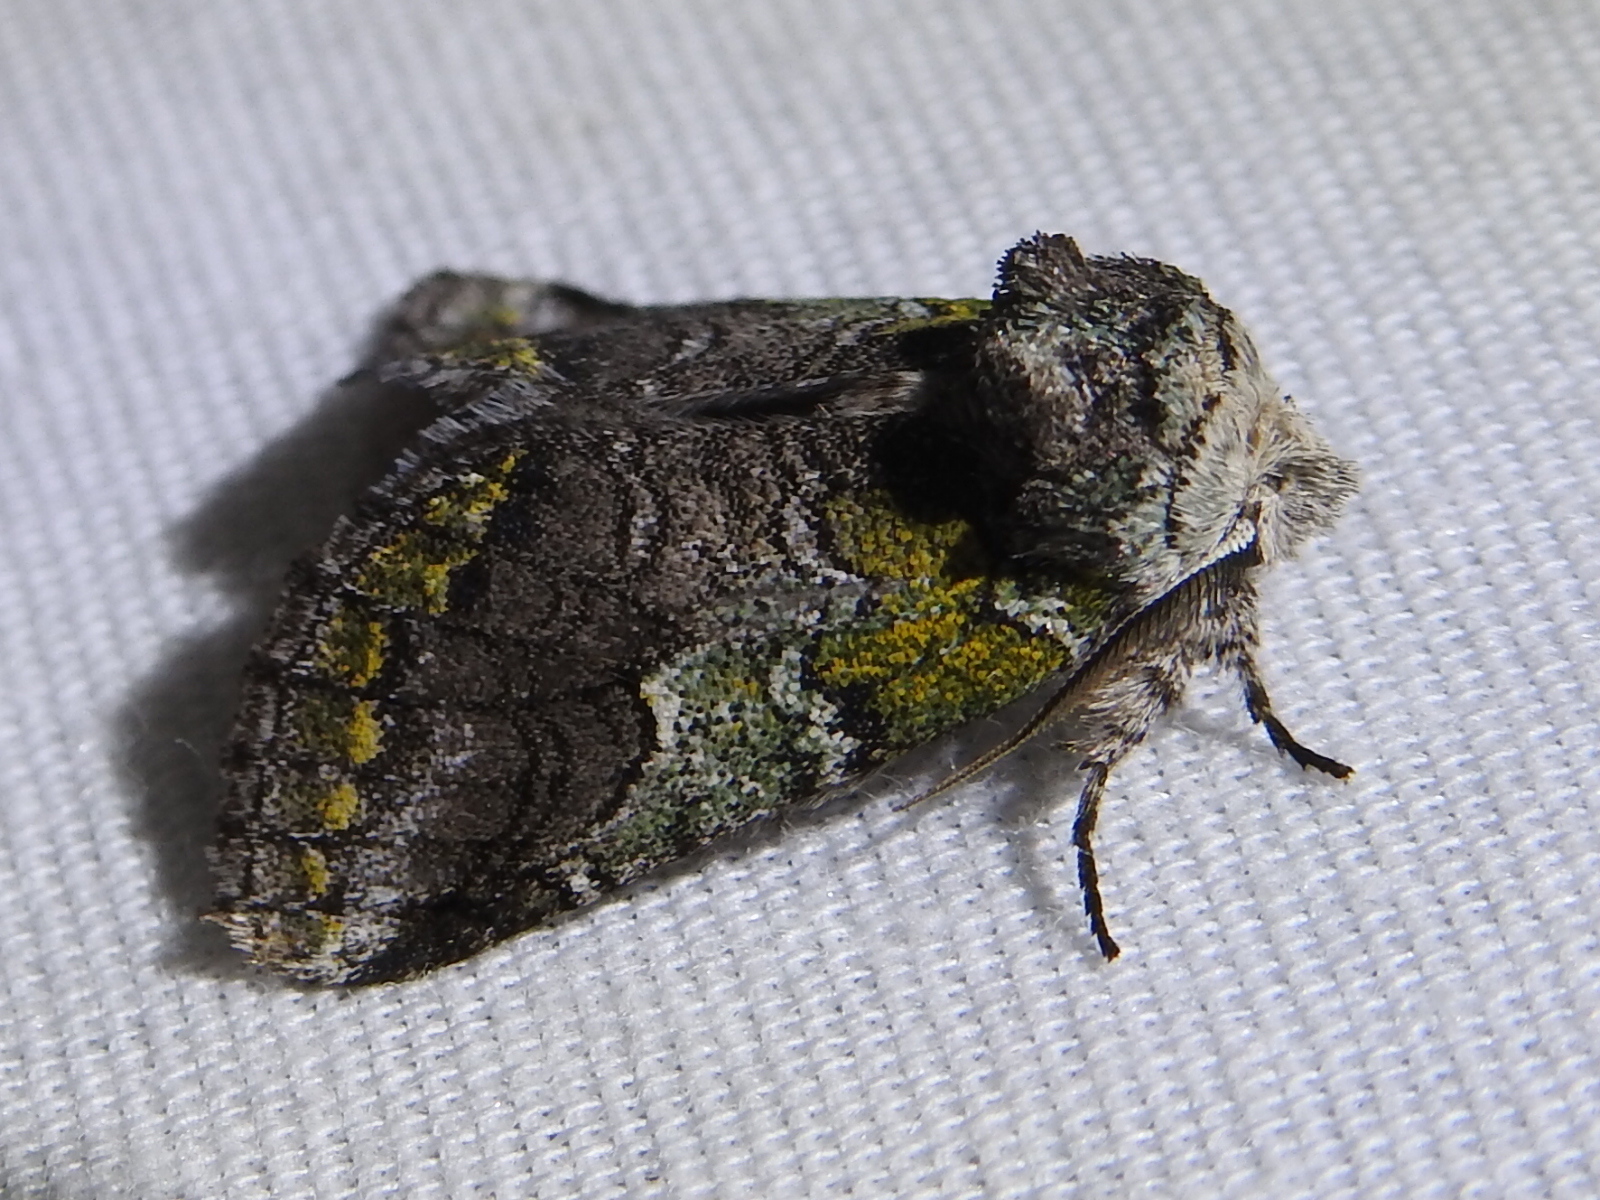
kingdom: Animalia
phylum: Arthropoda
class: Insecta
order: Lepidoptera
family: Notodontidae
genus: Litodonta
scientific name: Litodonta hydromeli
